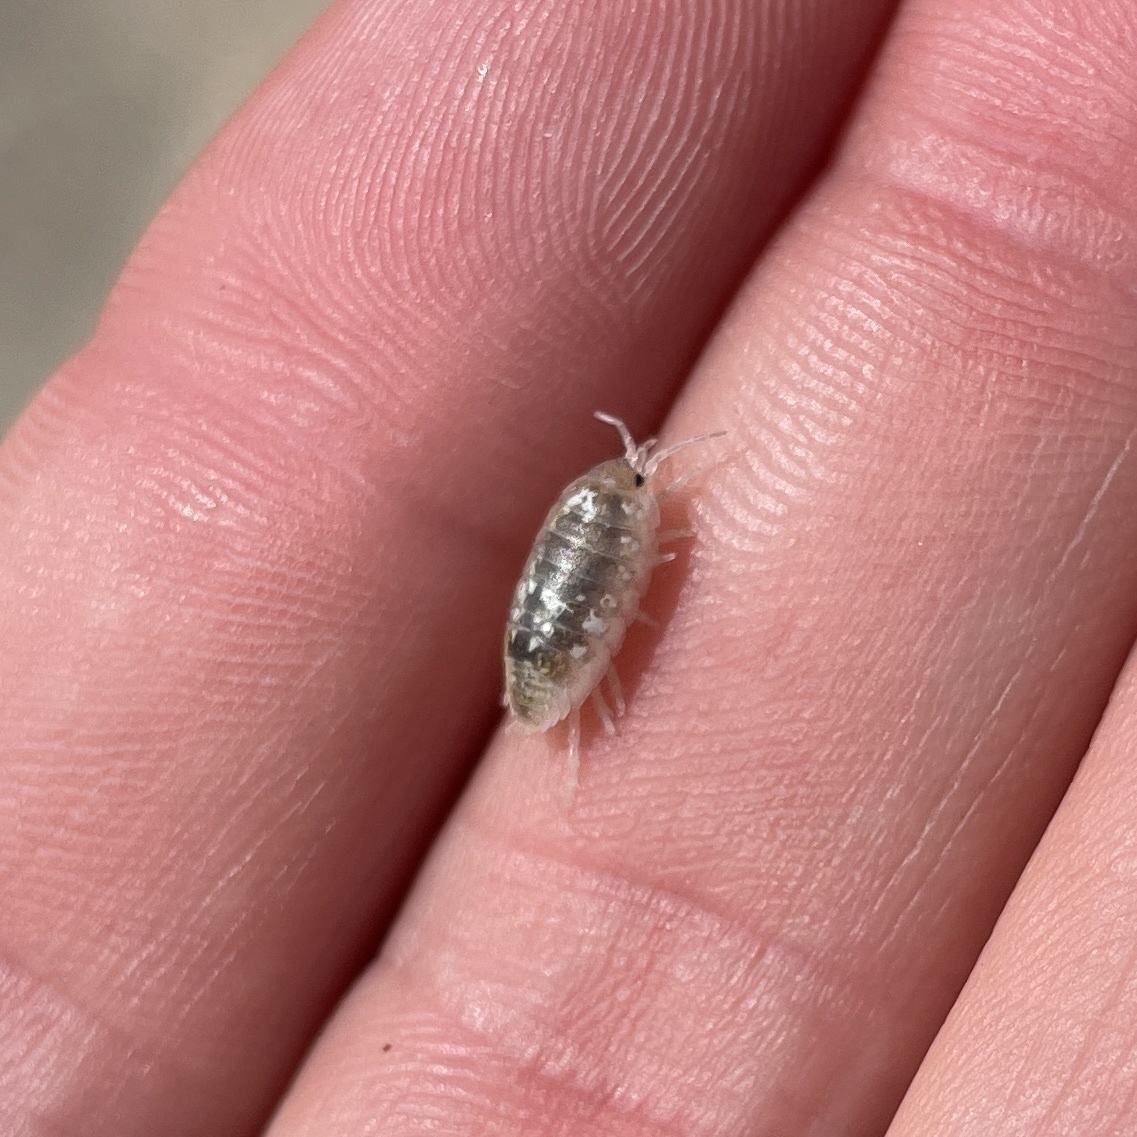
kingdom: Animalia
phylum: Arthropoda
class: Malacostraca
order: Isopoda
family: Alloniscidae
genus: Alloniscus
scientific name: Alloniscus perconvexus
